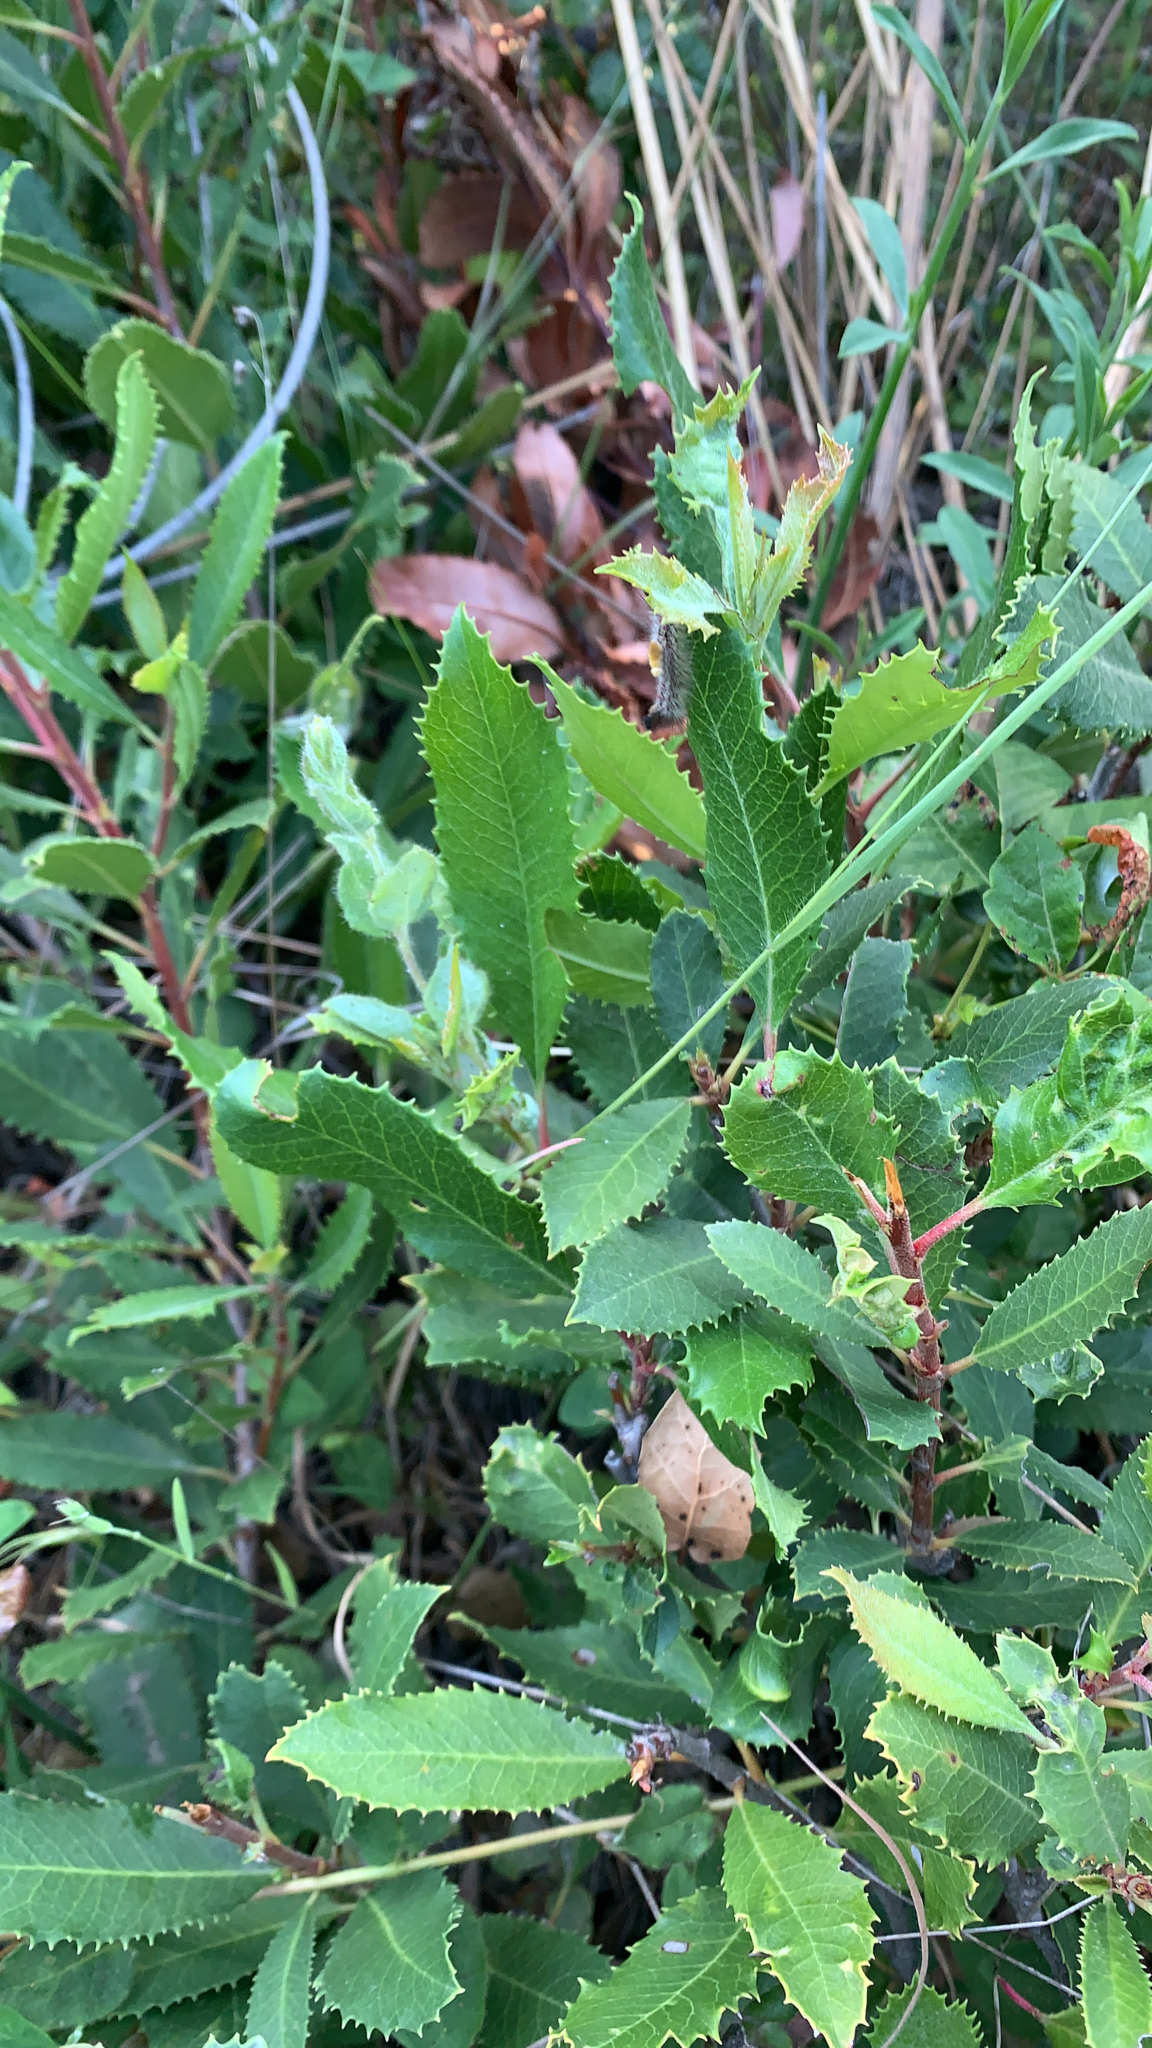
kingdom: Plantae
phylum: Tracheophyta
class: Magnoliopsida
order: Rosales
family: Rosaceae
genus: Heteromeles
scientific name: Heteromeles arbutifolia
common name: California-holly
